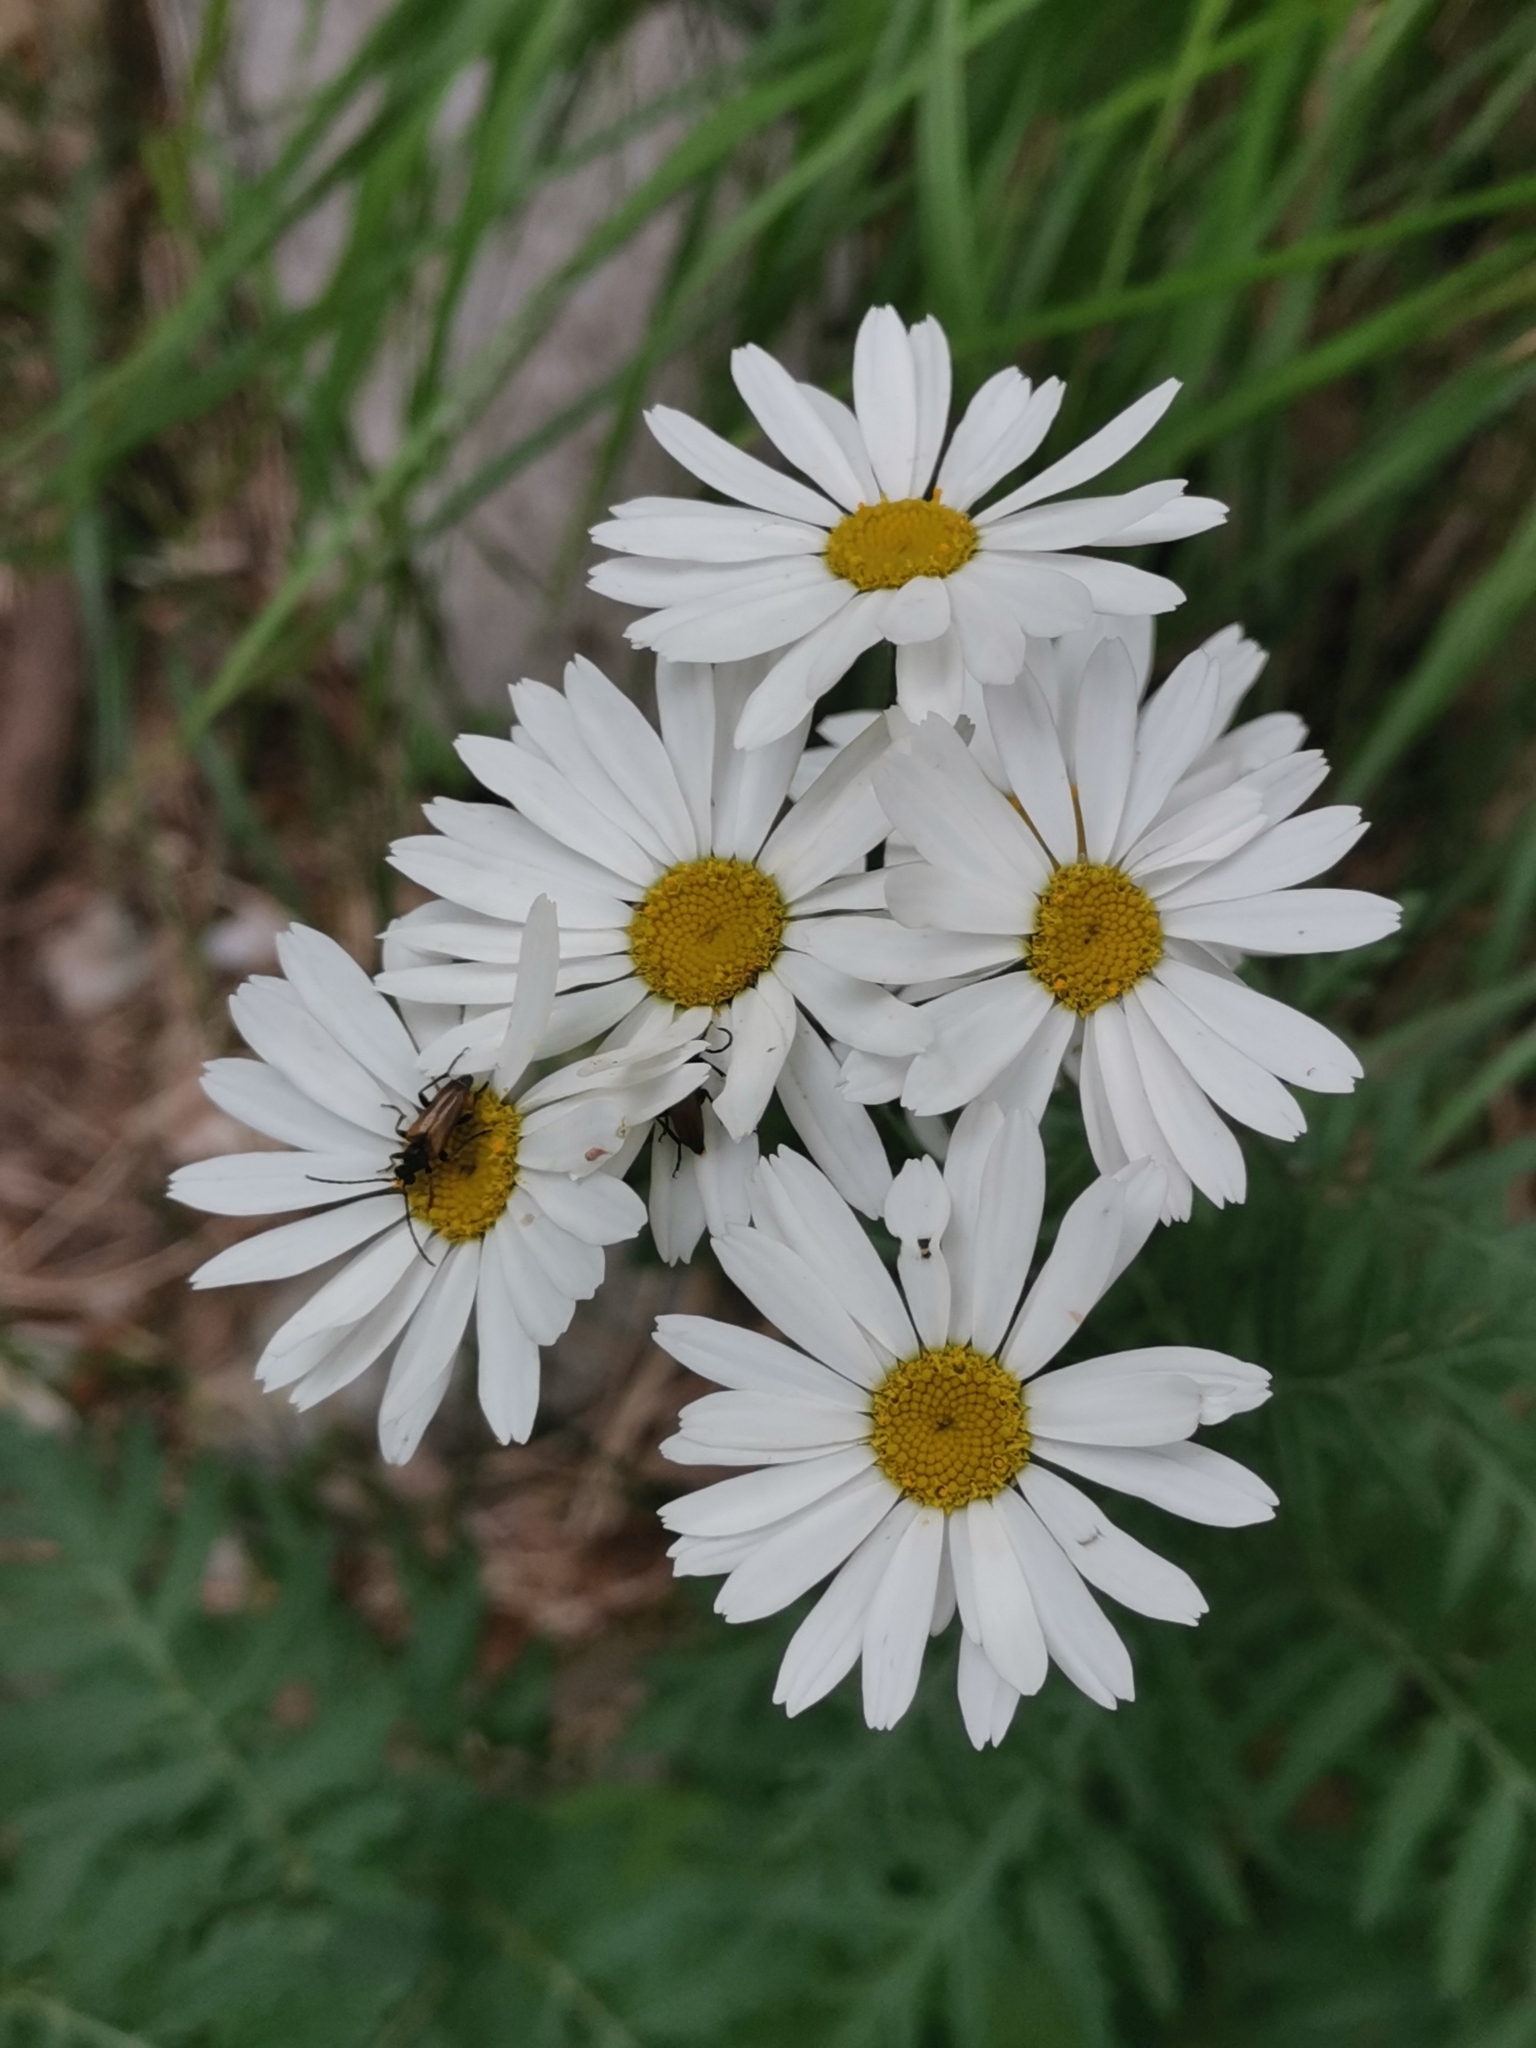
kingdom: Plantae
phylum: Tracheophyta
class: Magnoliopsida
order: Asterales
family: Asteraceae
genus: Tanacetum
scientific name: Tanacetum corymbosum
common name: Scentless feverfew
